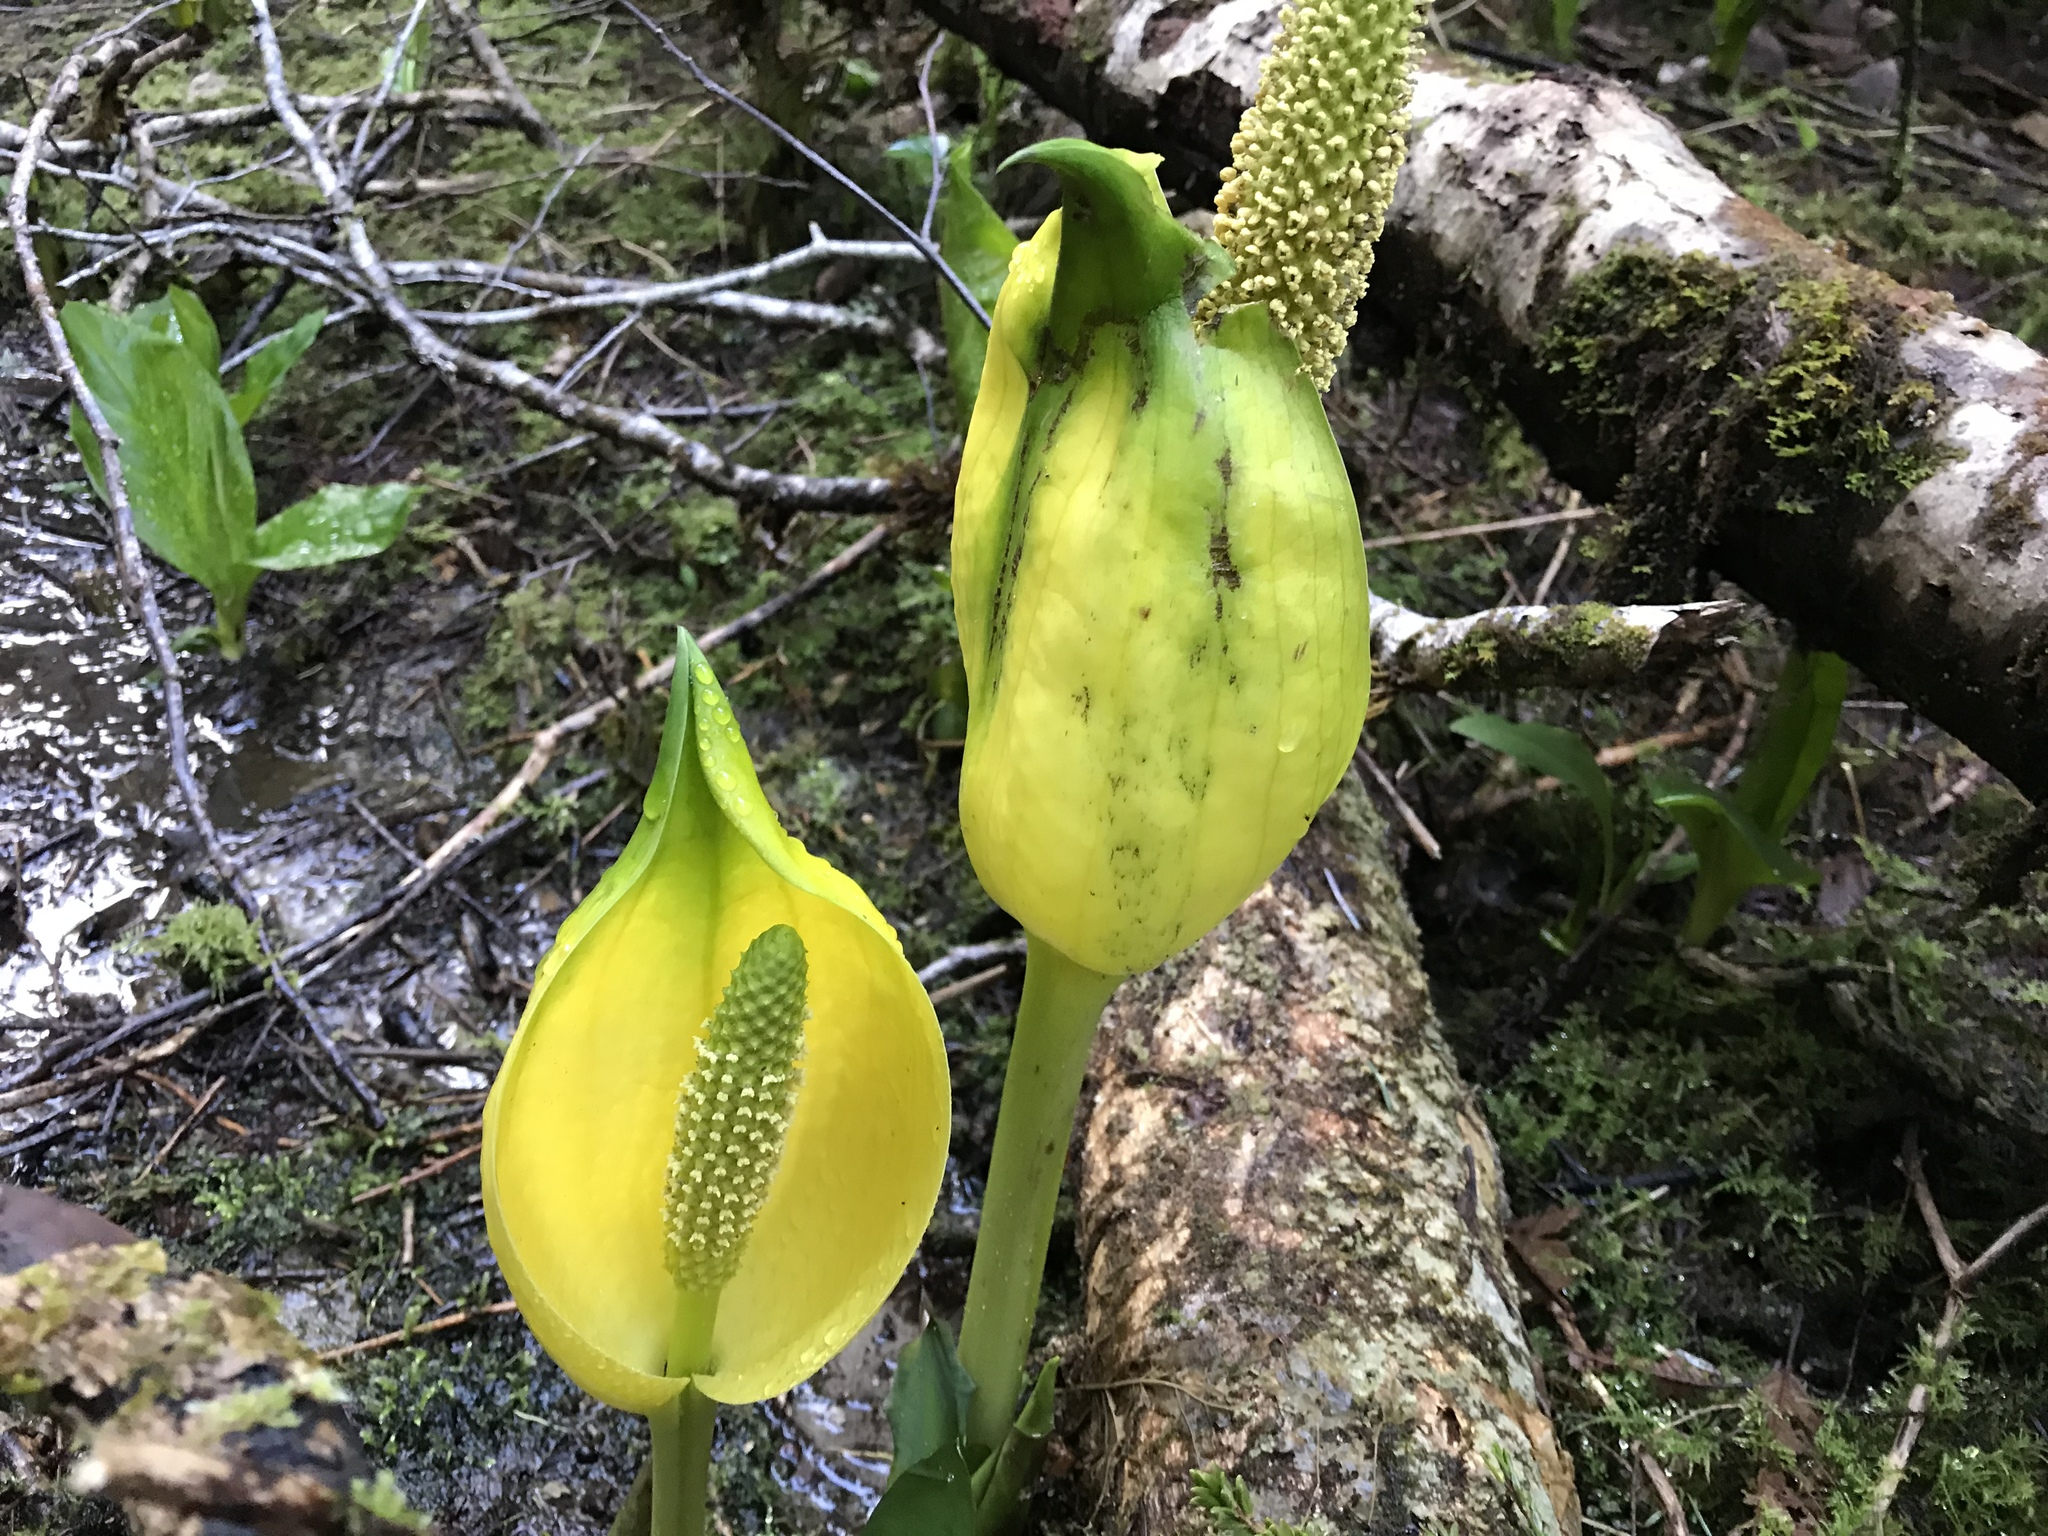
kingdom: Plantae
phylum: Tracheophyta
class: Liliopsida
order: Alismatales
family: Araceae
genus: Lysichiton
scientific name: Lysichiton americanus
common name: American skunk cabbage
